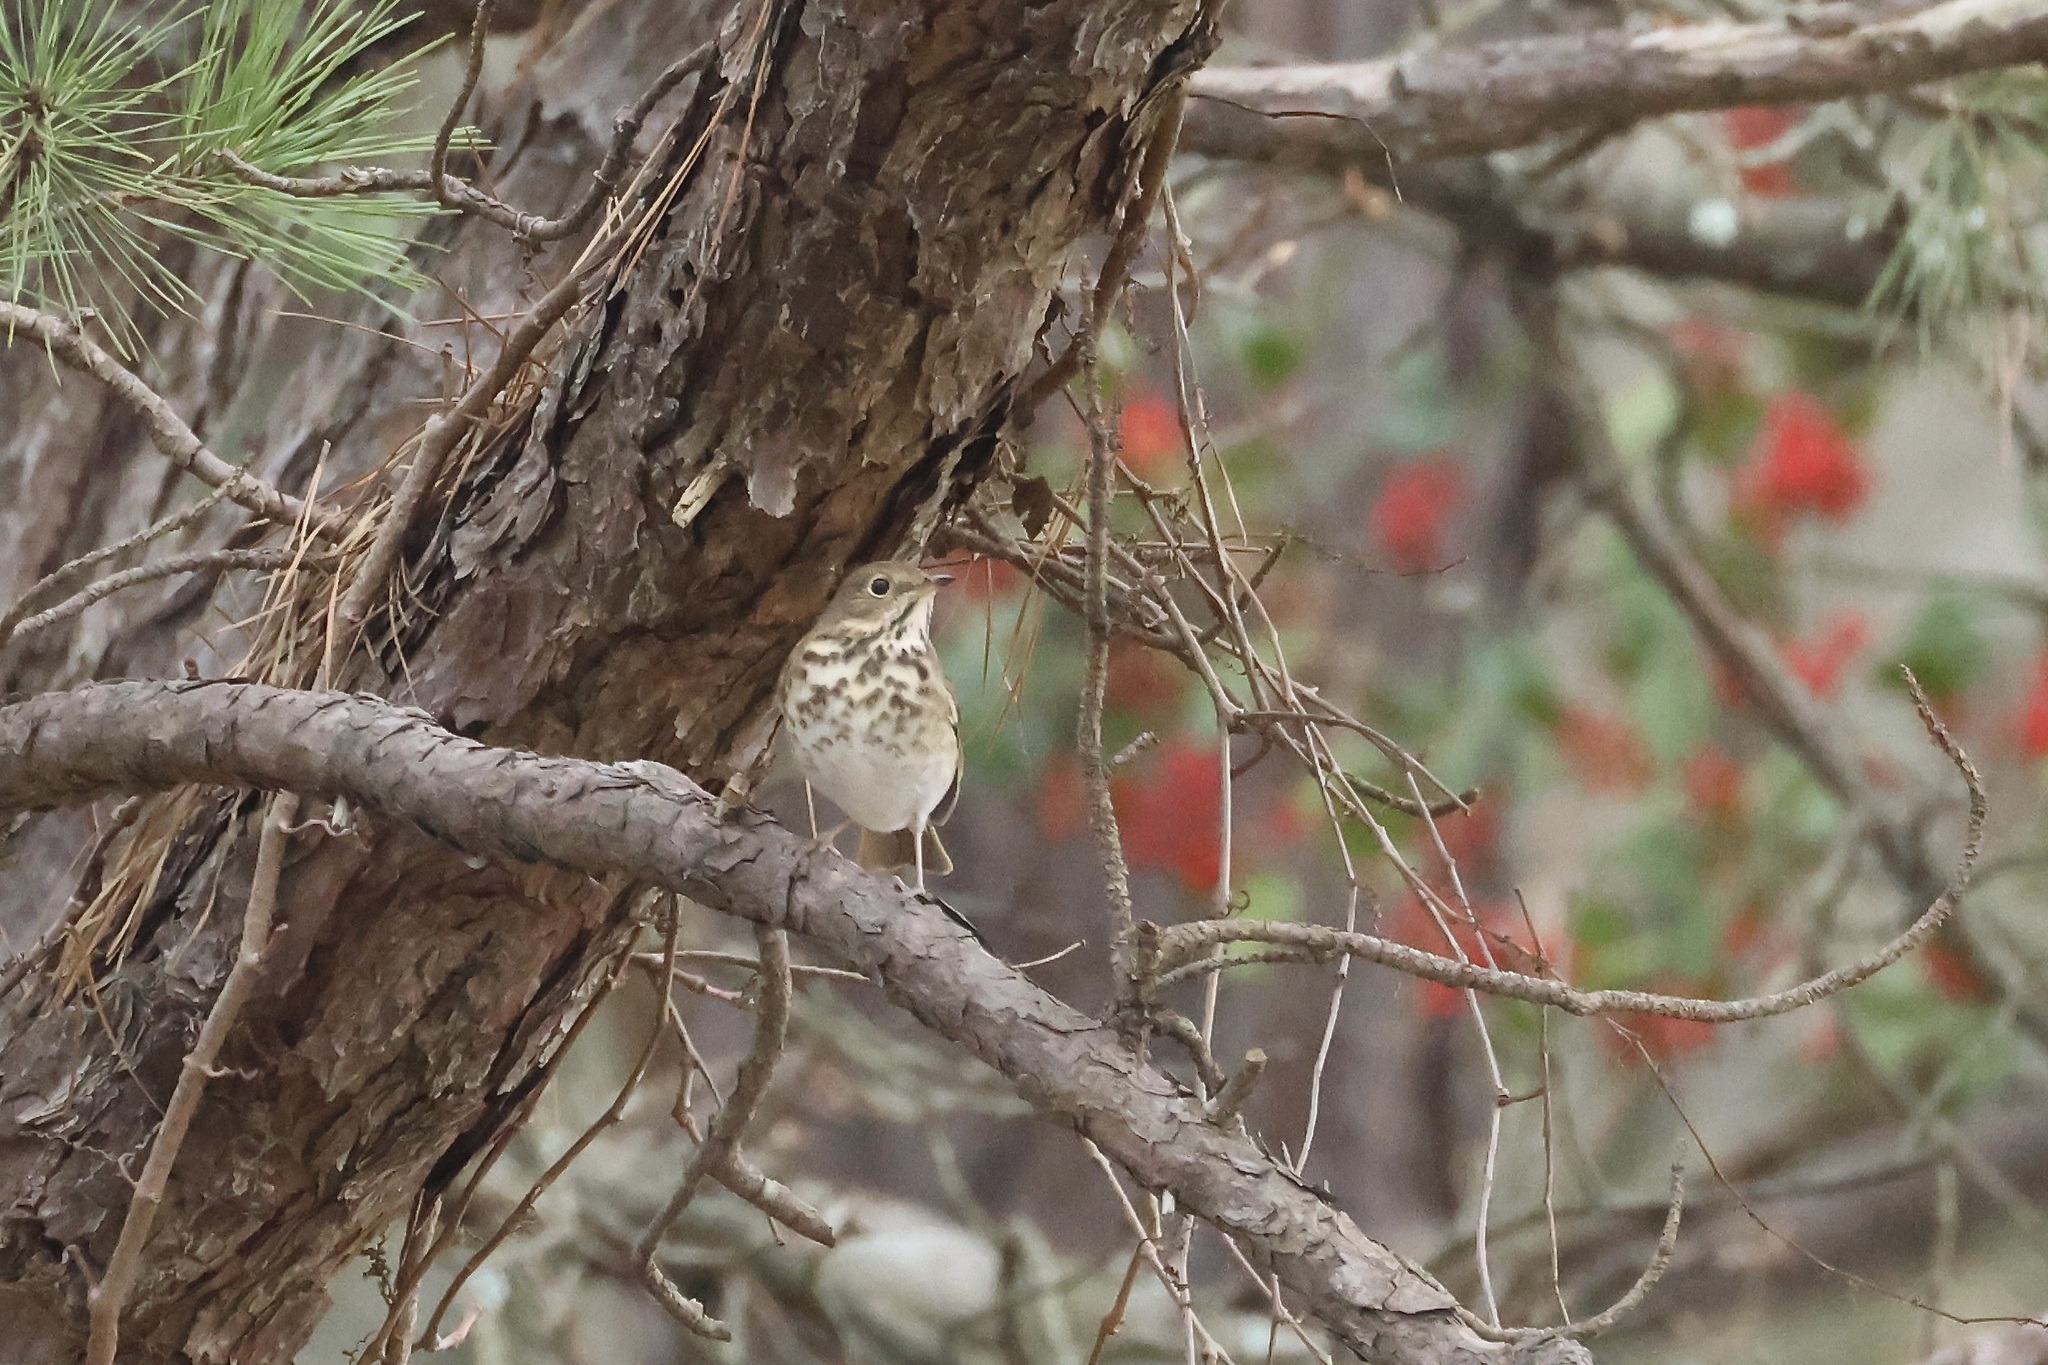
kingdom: Animalia
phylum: Chordata
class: Aves
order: Passeriformes
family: Turdidae
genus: Catharus
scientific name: Catharus guttatus
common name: Hermit thrush
